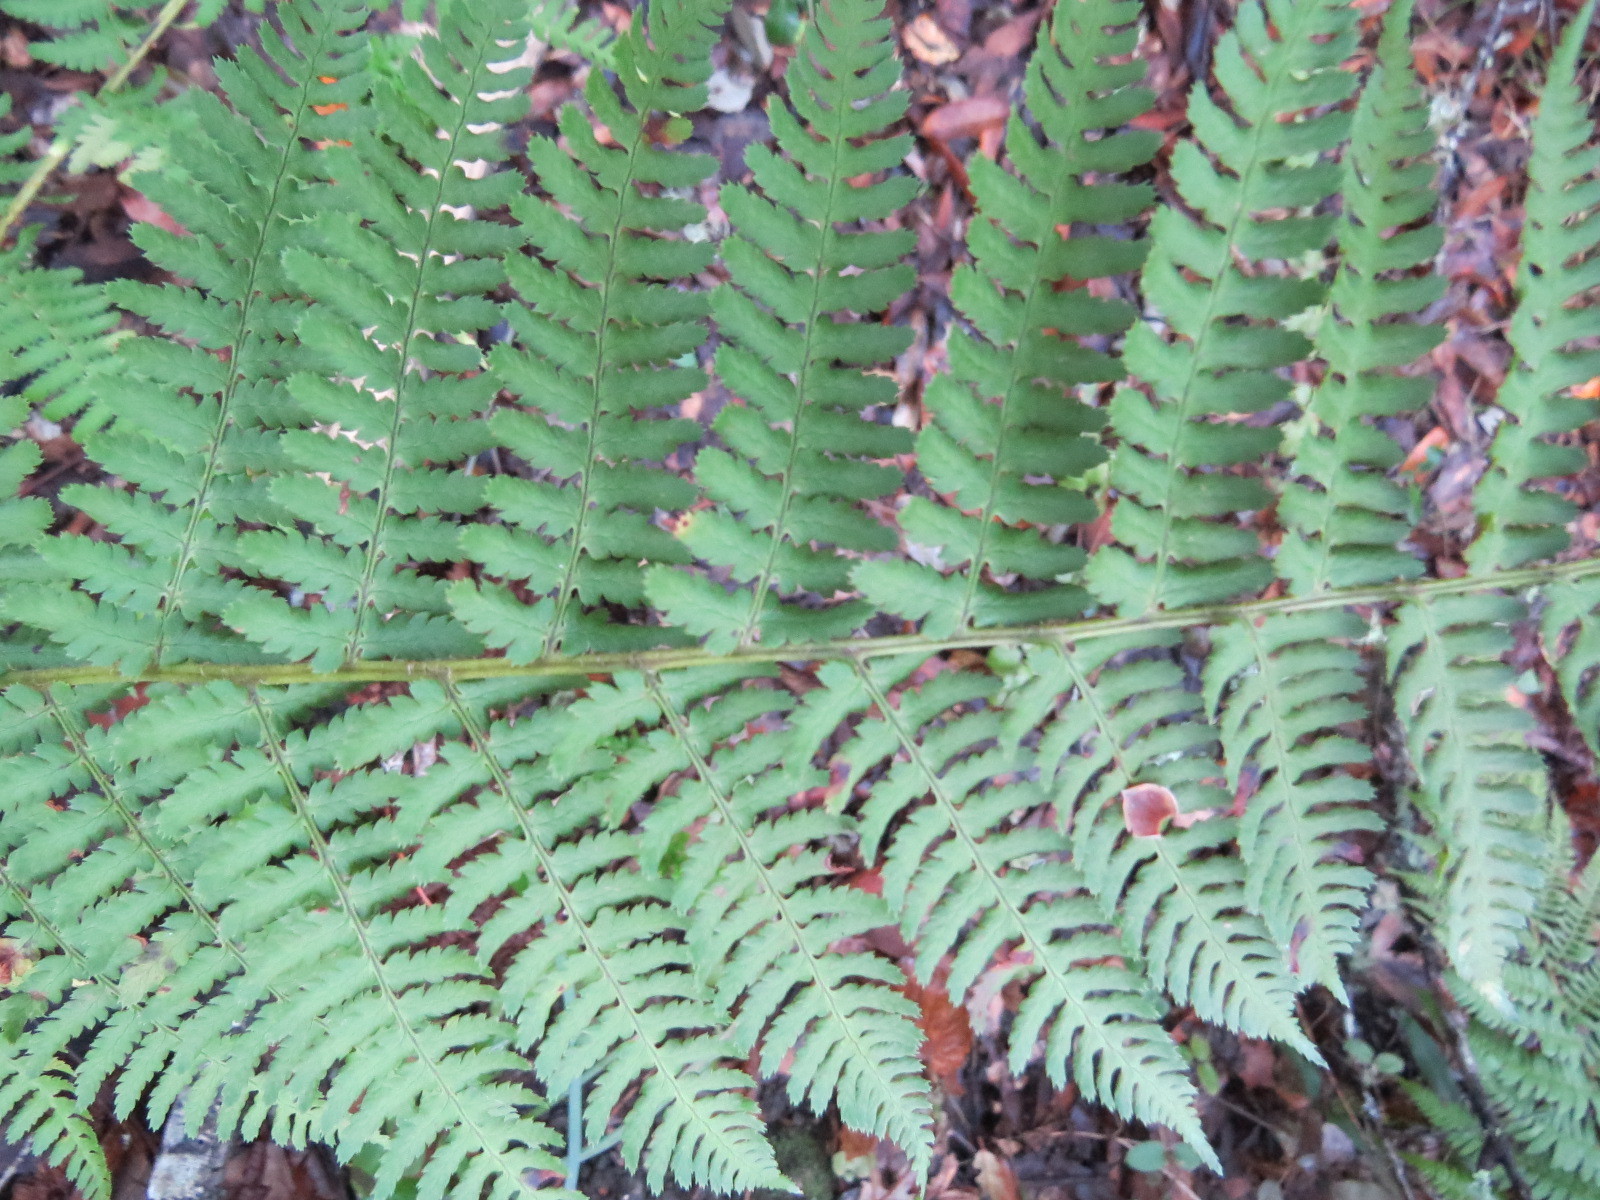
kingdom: Plantae
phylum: Tracheophyta
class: Polypodiopsida
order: Polypodiales
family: Dryopteridaceae
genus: Dryopteris
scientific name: Dryopteris arguta
